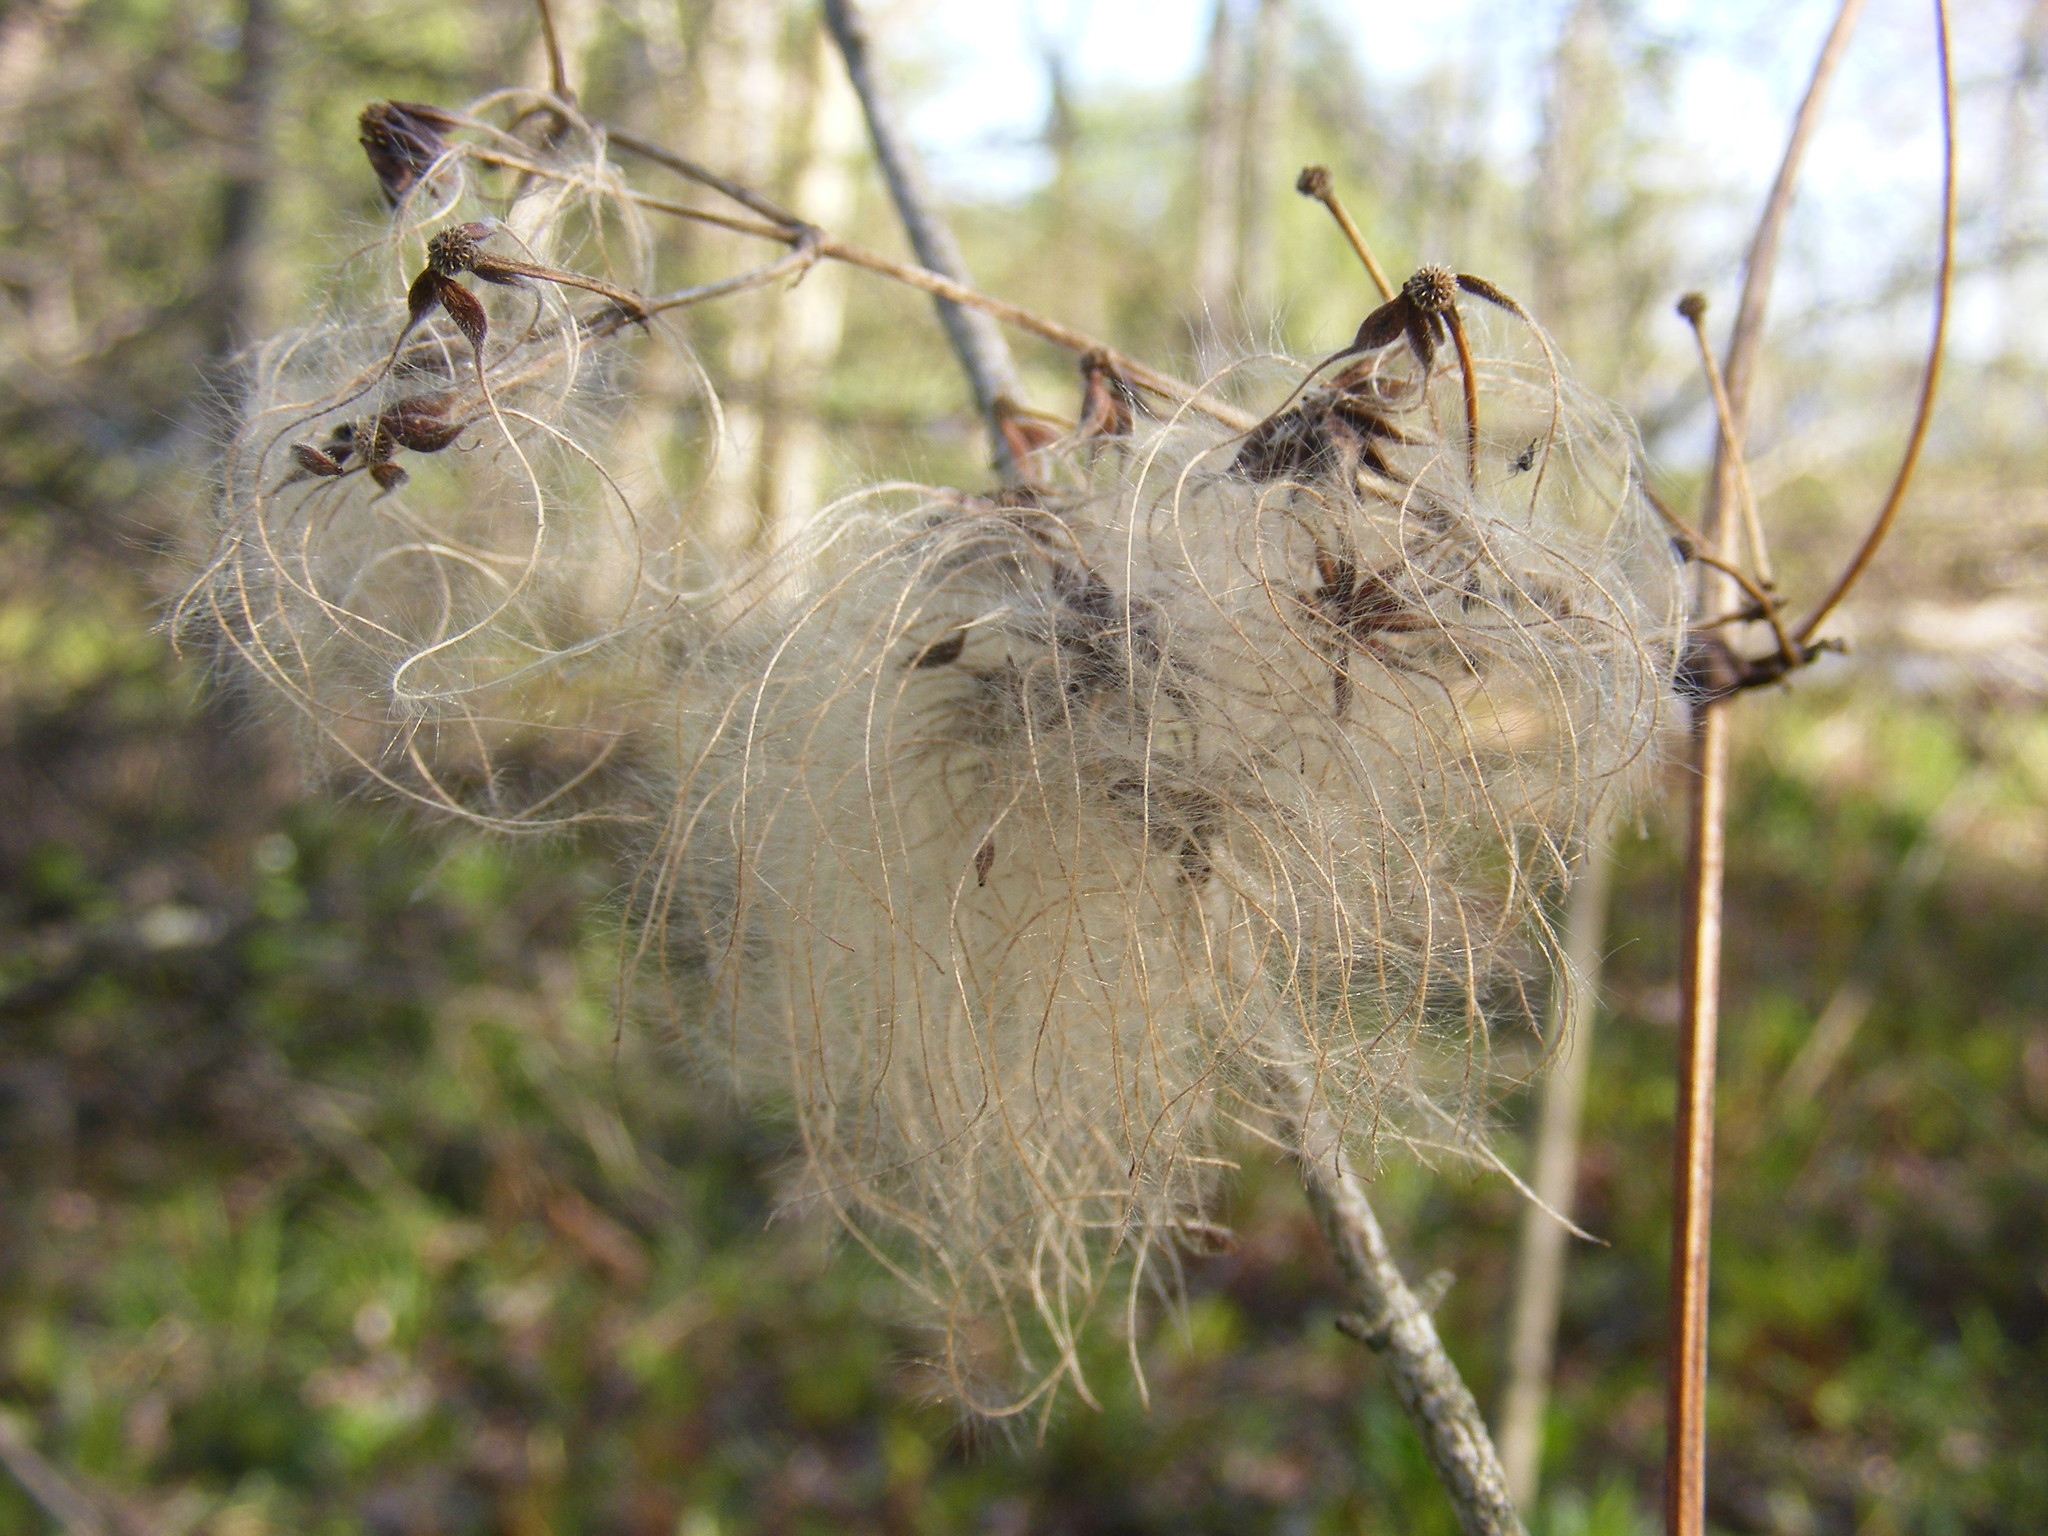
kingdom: Plantae
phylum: Tracheophyta
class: Magnoliopsida
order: Ranunculales
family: Ranunculaceae
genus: Clematis
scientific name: Clematis virginiana
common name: Virgin's-bower
